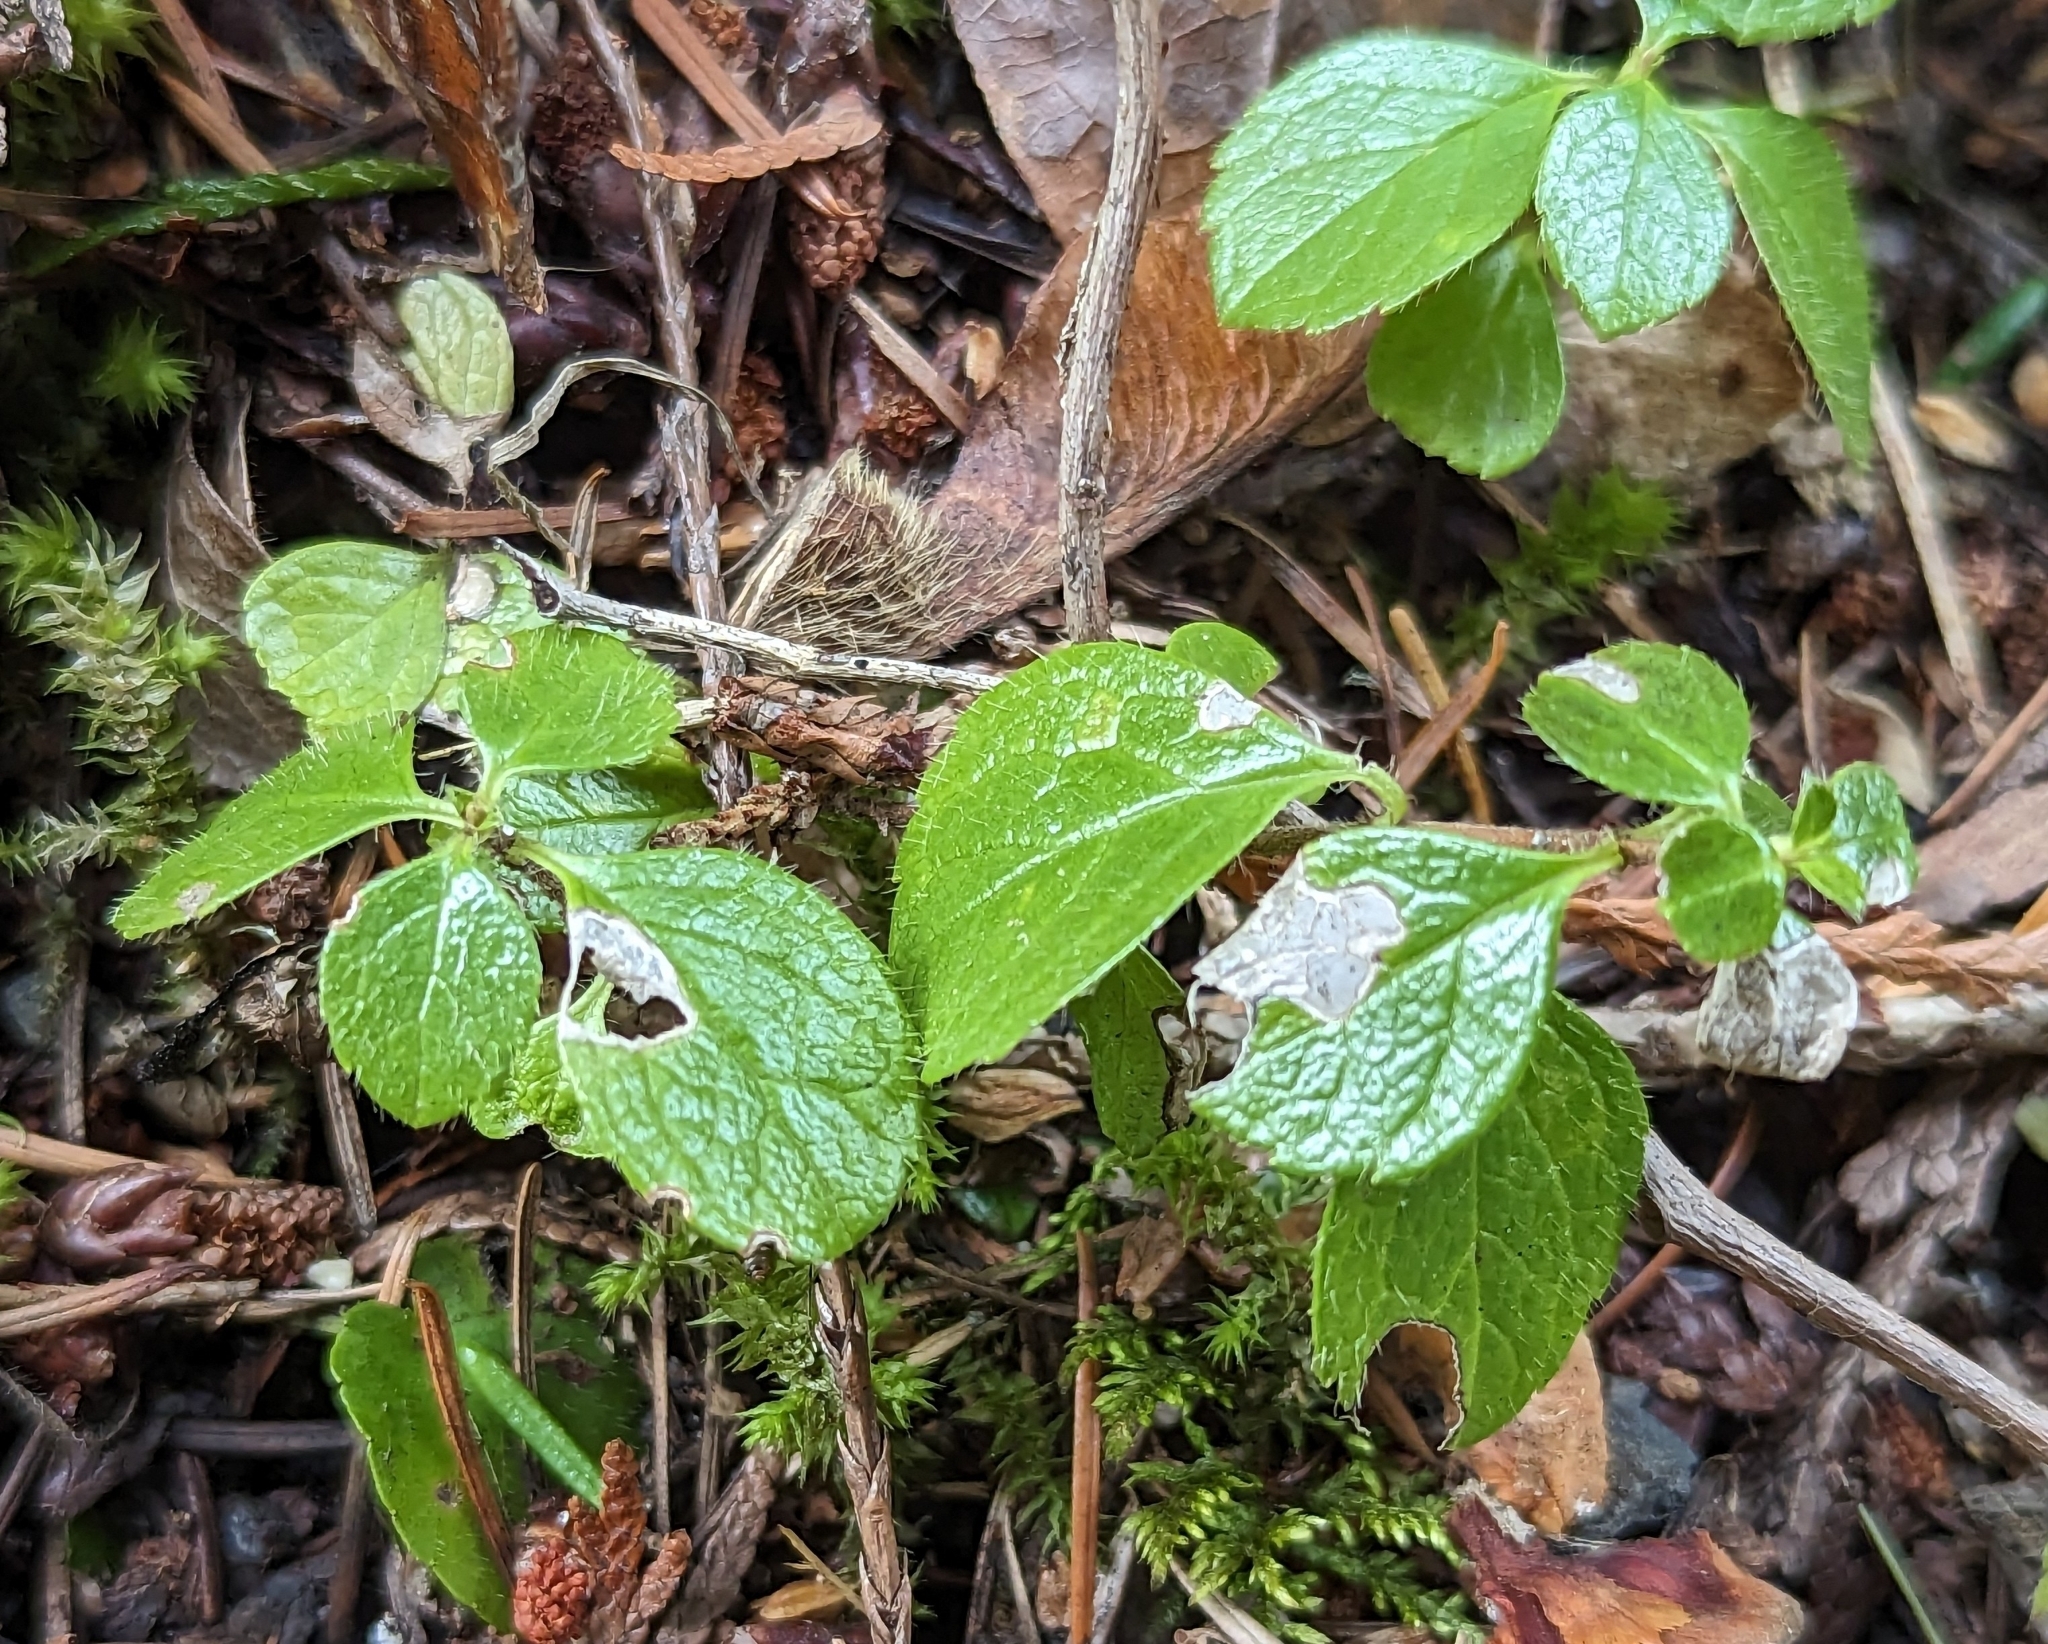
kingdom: Plantae
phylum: Tracheophyta
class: Magnoliopsida
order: Dipsacales
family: Caprifoliaceae
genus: Linnaea
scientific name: Linnaea borealis
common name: Twinflower
